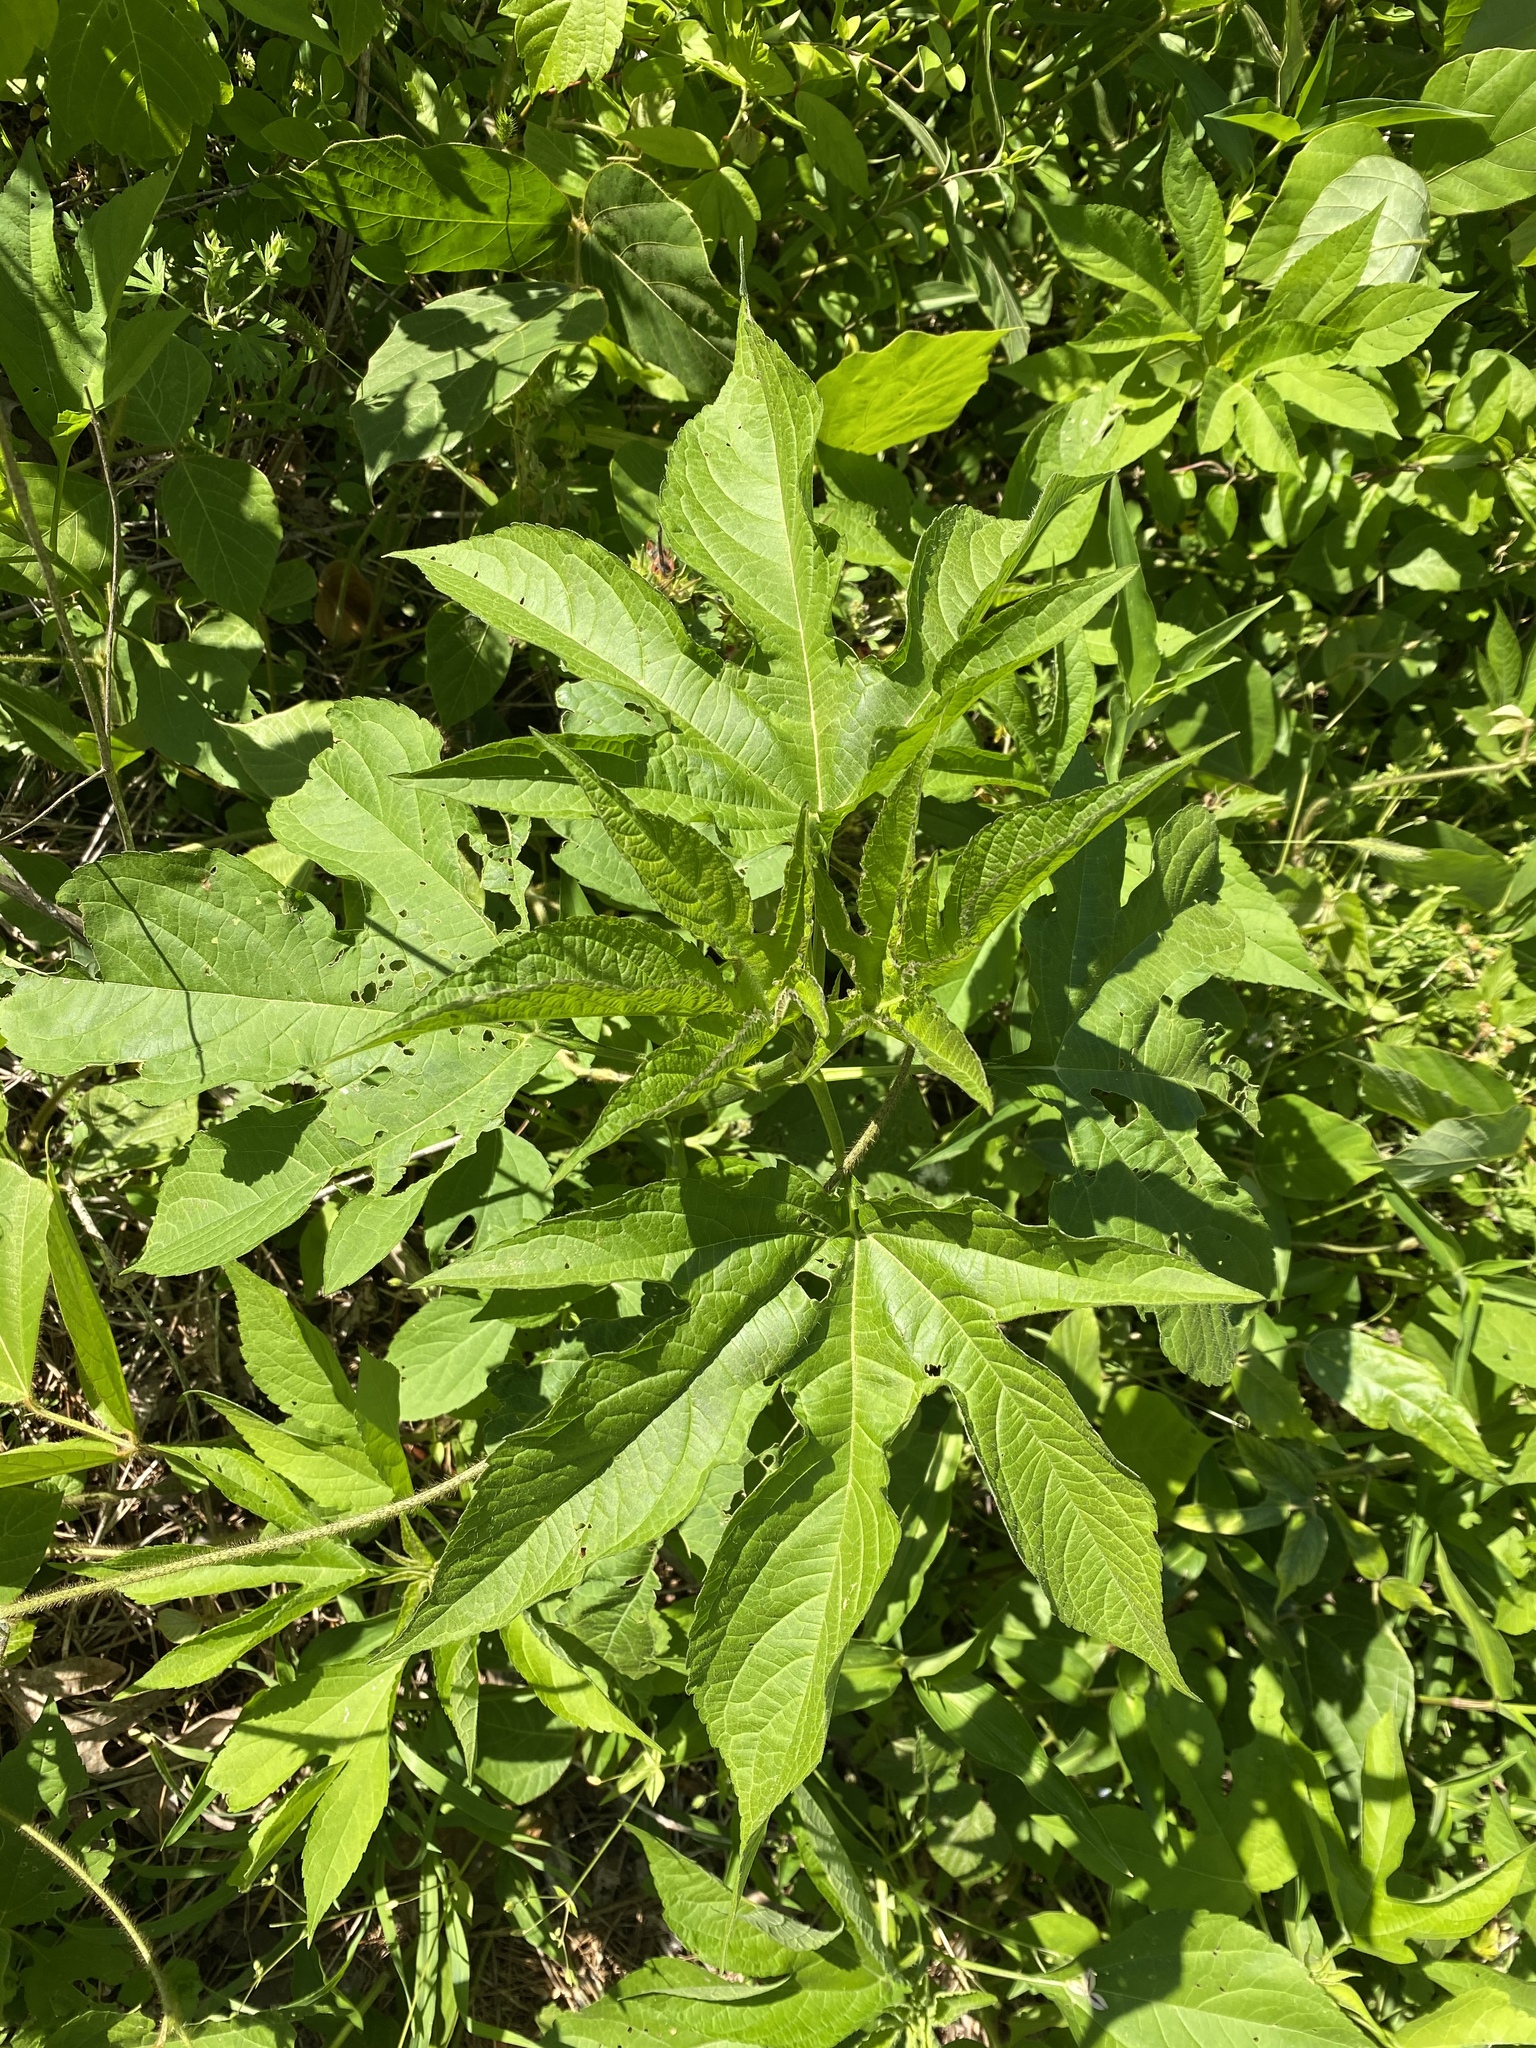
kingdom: Plantae
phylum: Tracheophyta
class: Magnoliopsida
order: Asterales
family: Asteraceae
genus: Ambrosia
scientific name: Ambrosia trifida
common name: Giant ragweed
